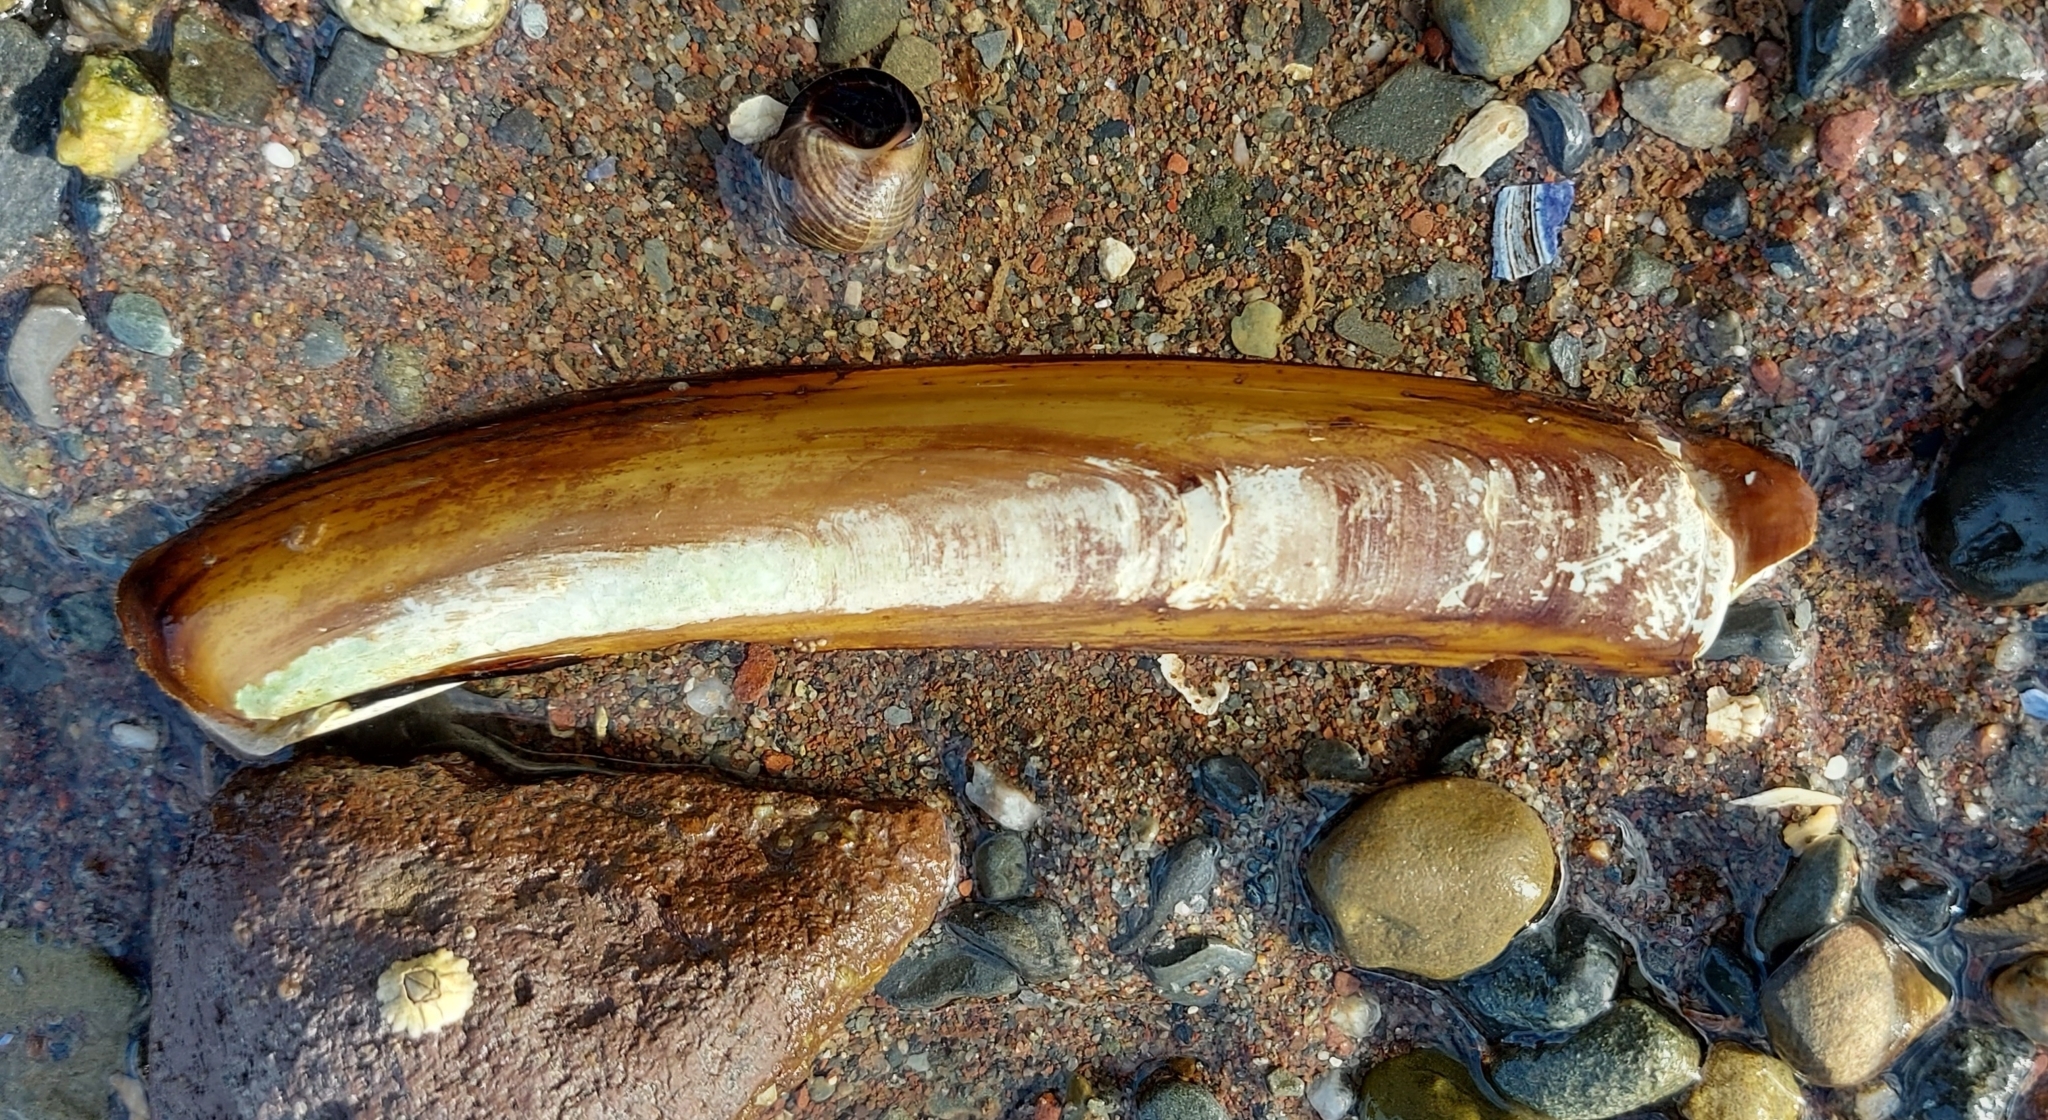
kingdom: Animalia
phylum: Mollusca
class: Bivalvia
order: Adapedonta
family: Pharidae
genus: Ensis
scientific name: Ensis leei
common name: American jack knife clam
